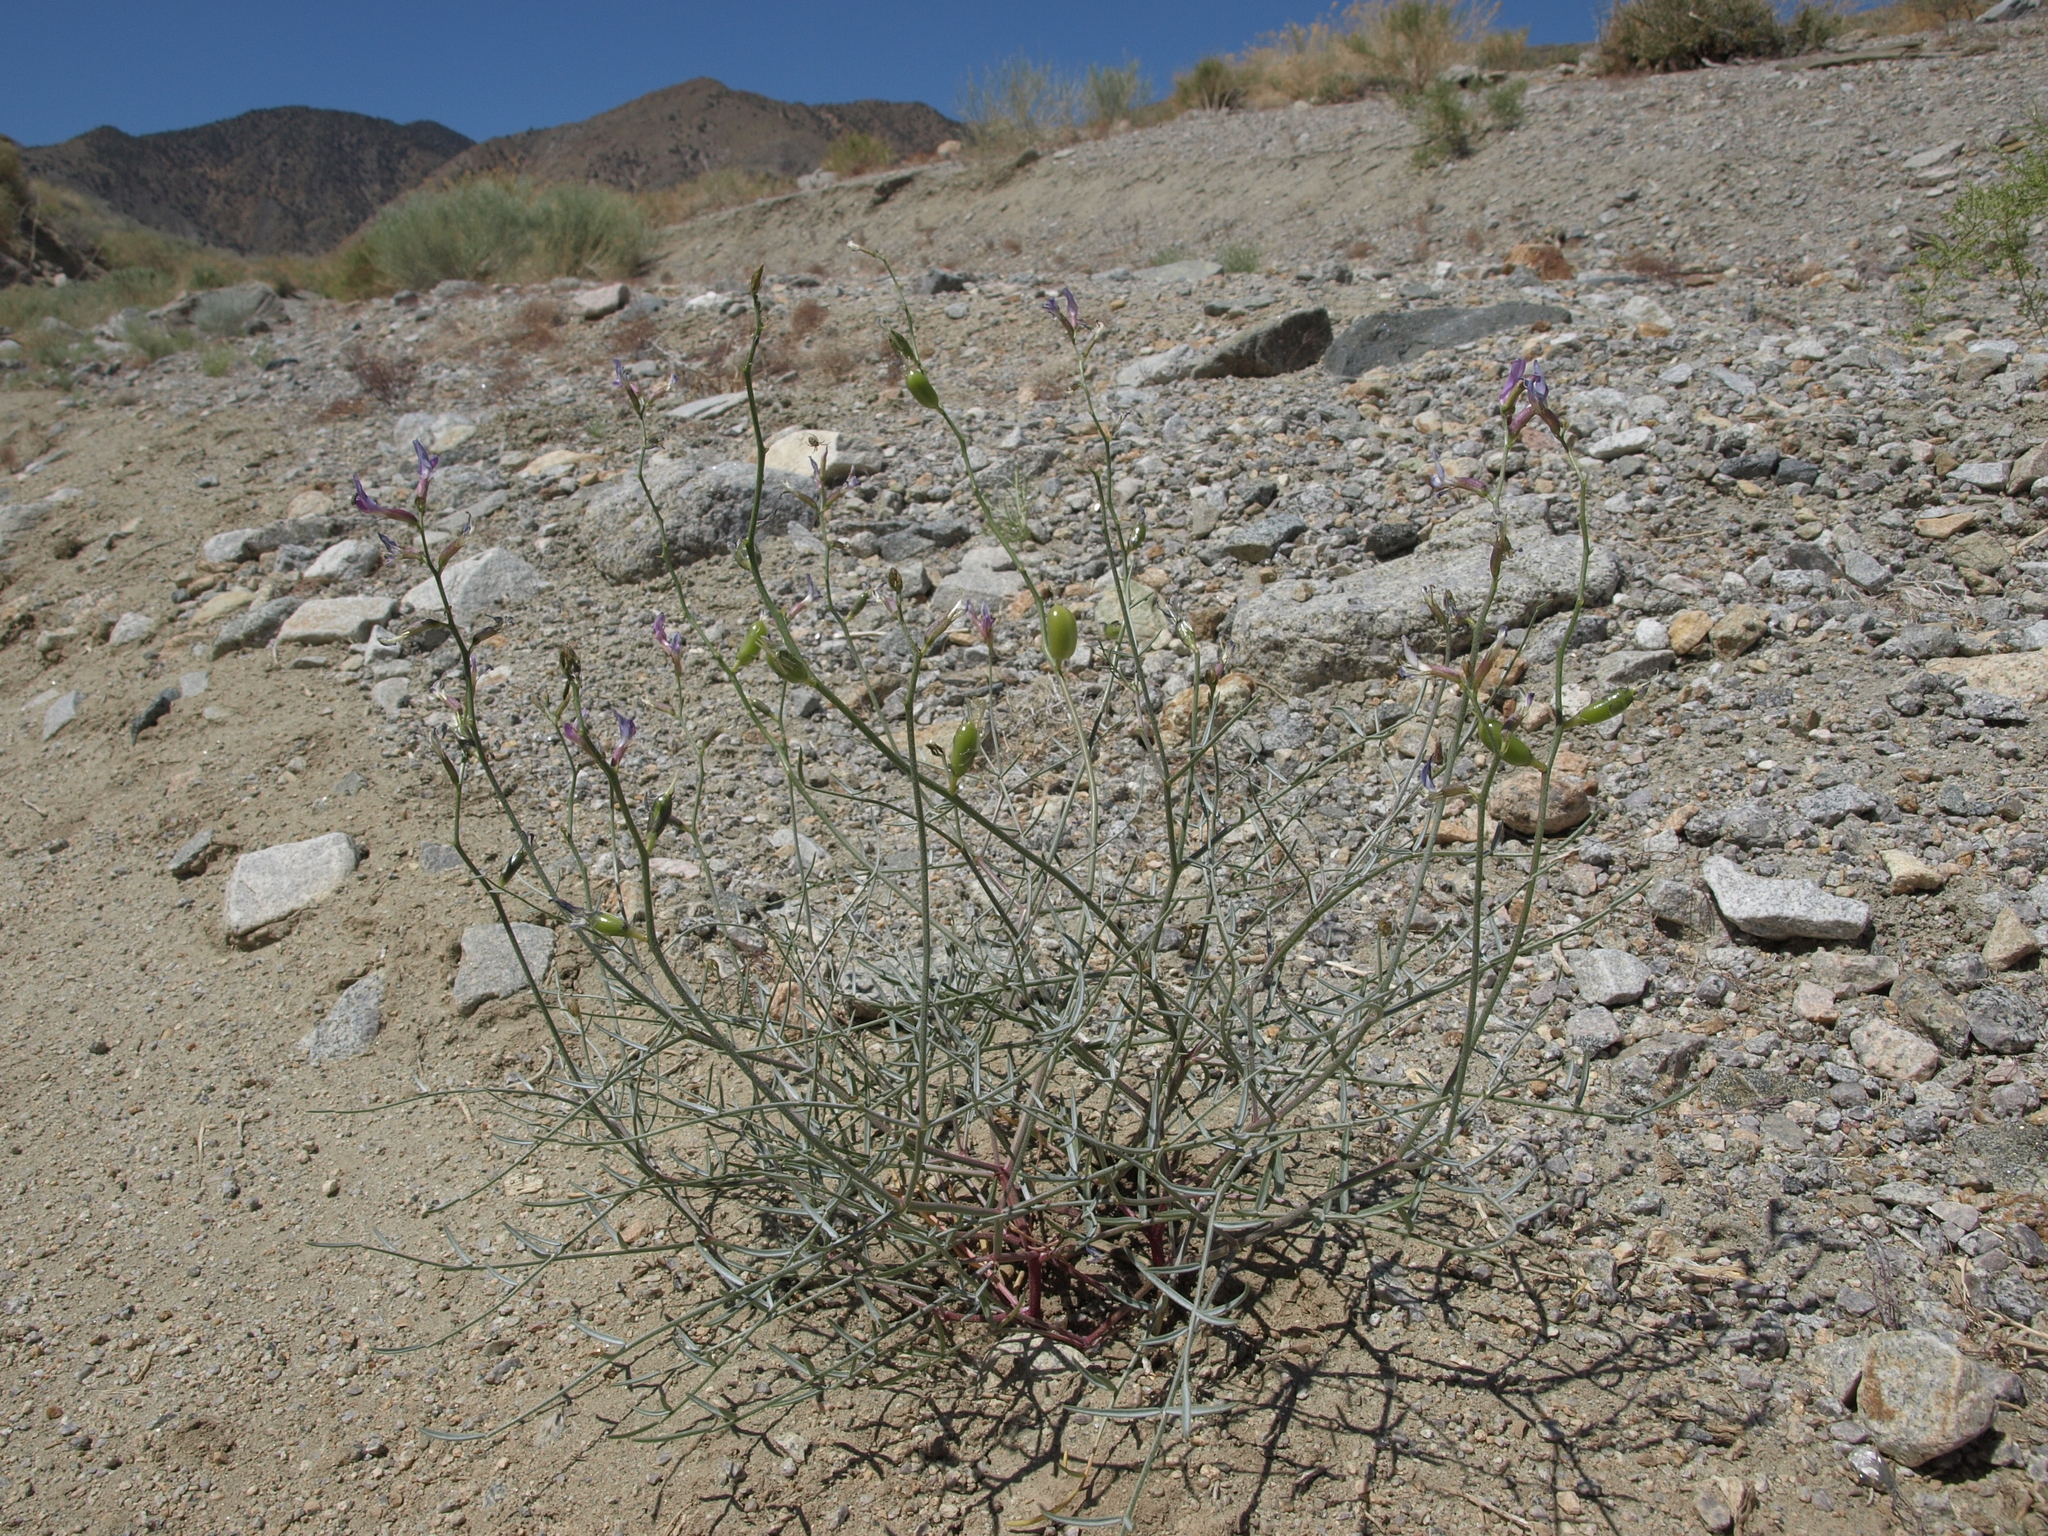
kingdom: Plantae
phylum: Tracheophyta
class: Magnoliopsida
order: Fabales
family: Fabaceae
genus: Astragalus
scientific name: Astragalus serenoi
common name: Naked milk-vetch
